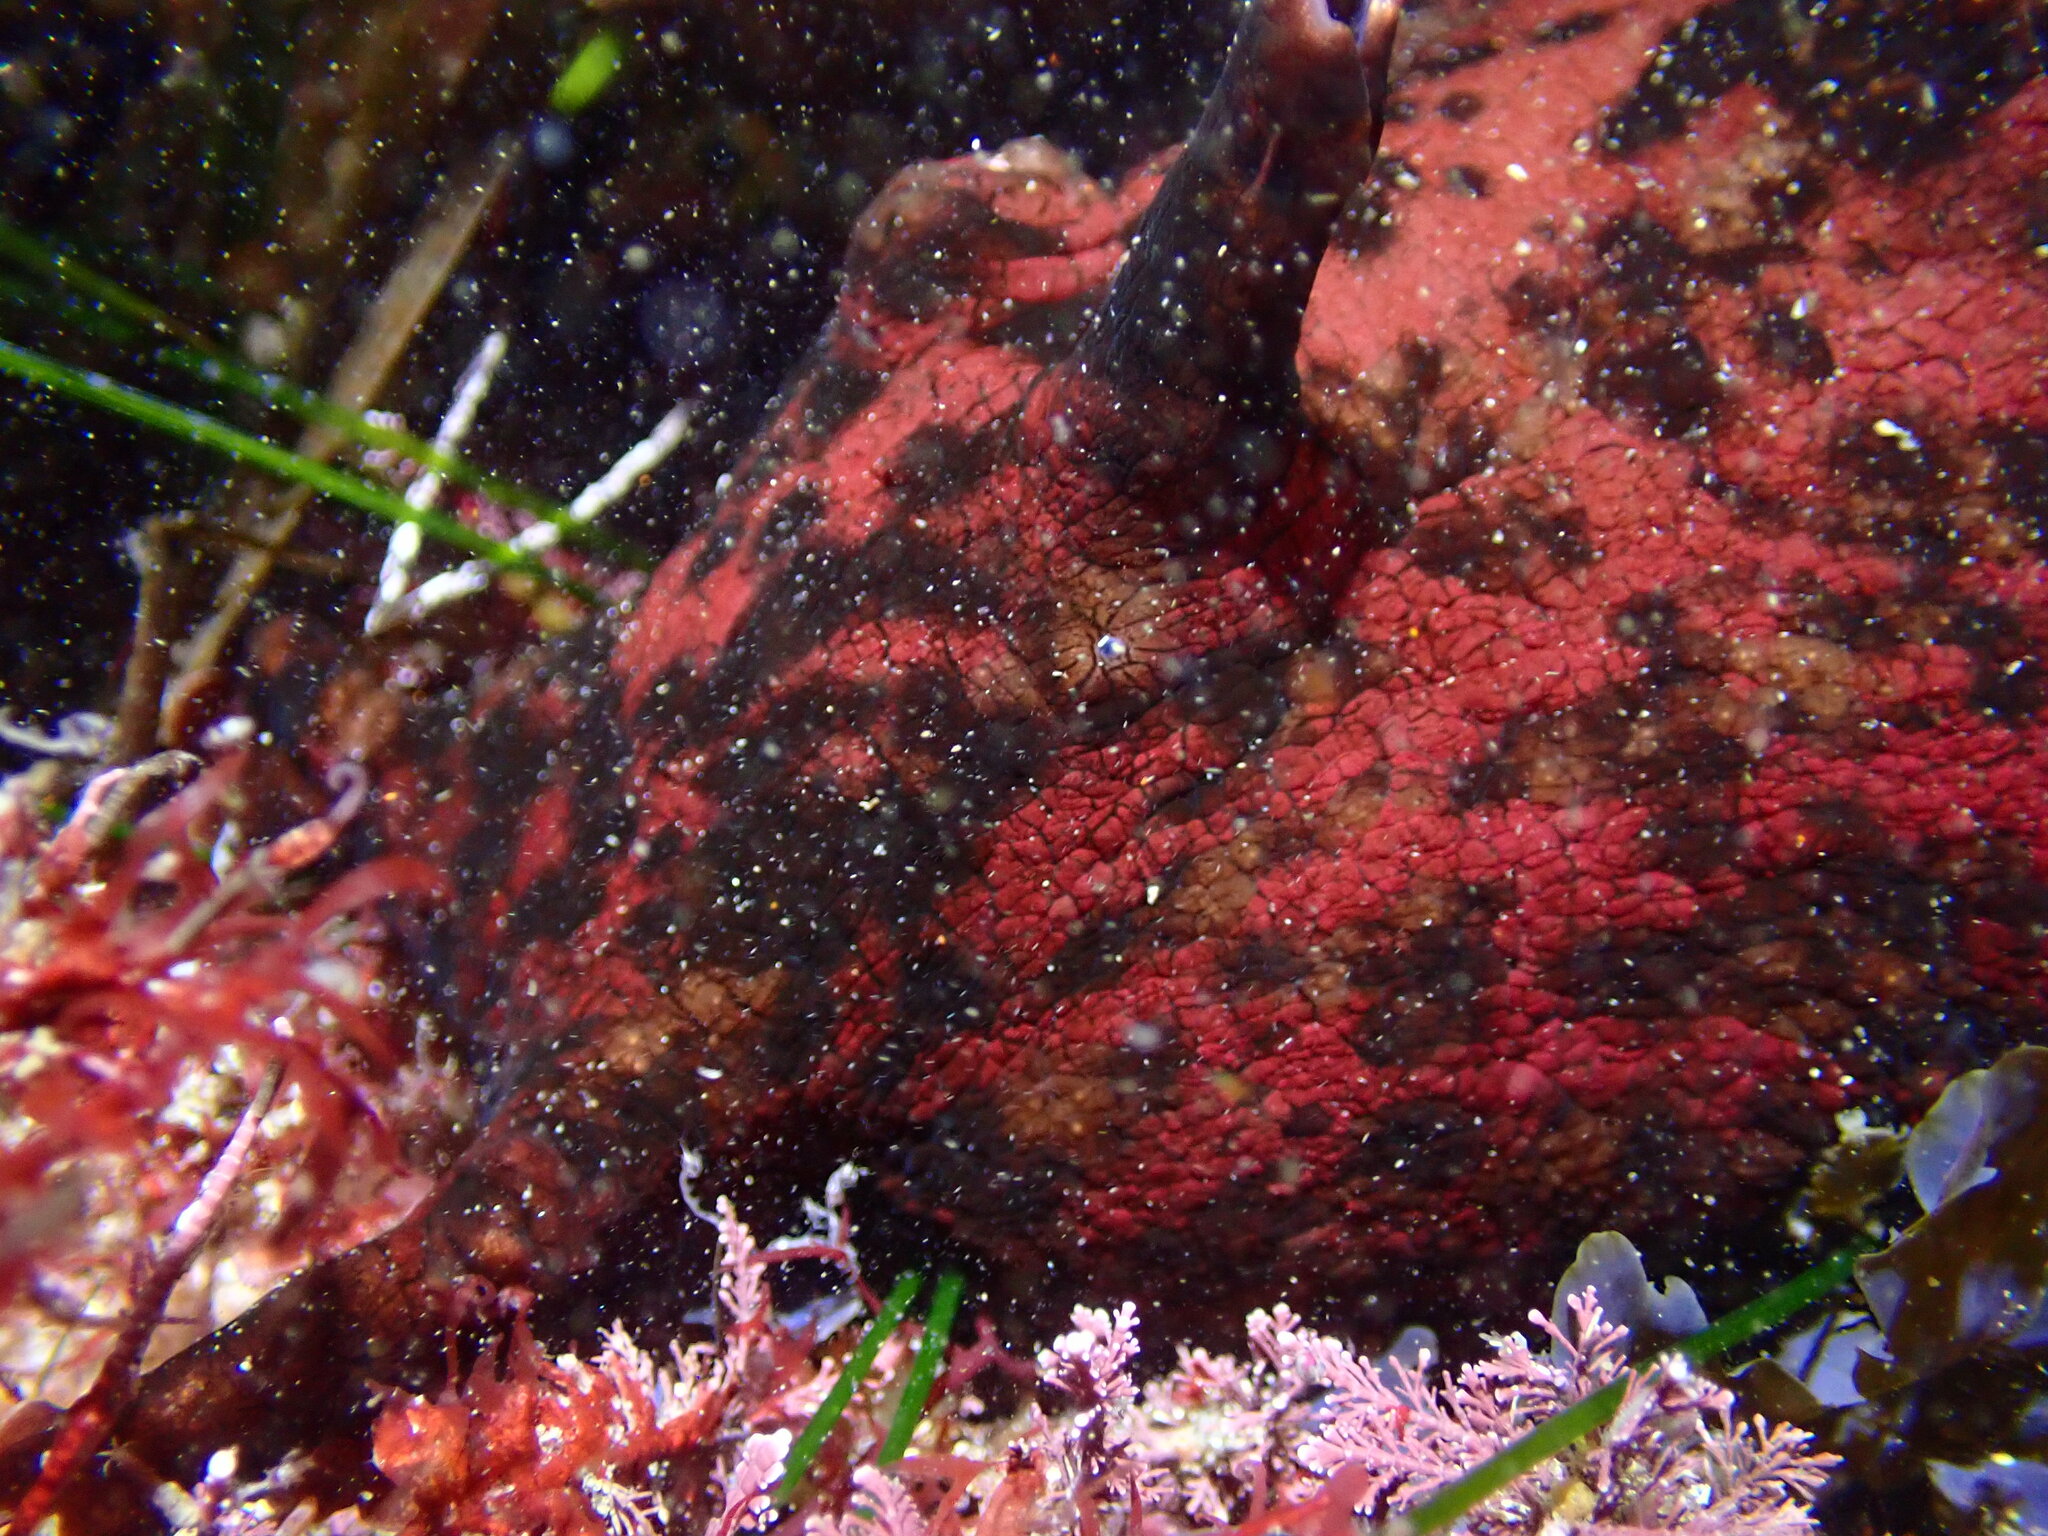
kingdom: Animalia
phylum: Mollusca
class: Gastropoda
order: Aplysiida
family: Aplysiidae
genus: Aplysia
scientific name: Aplysia californica
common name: California seahare
